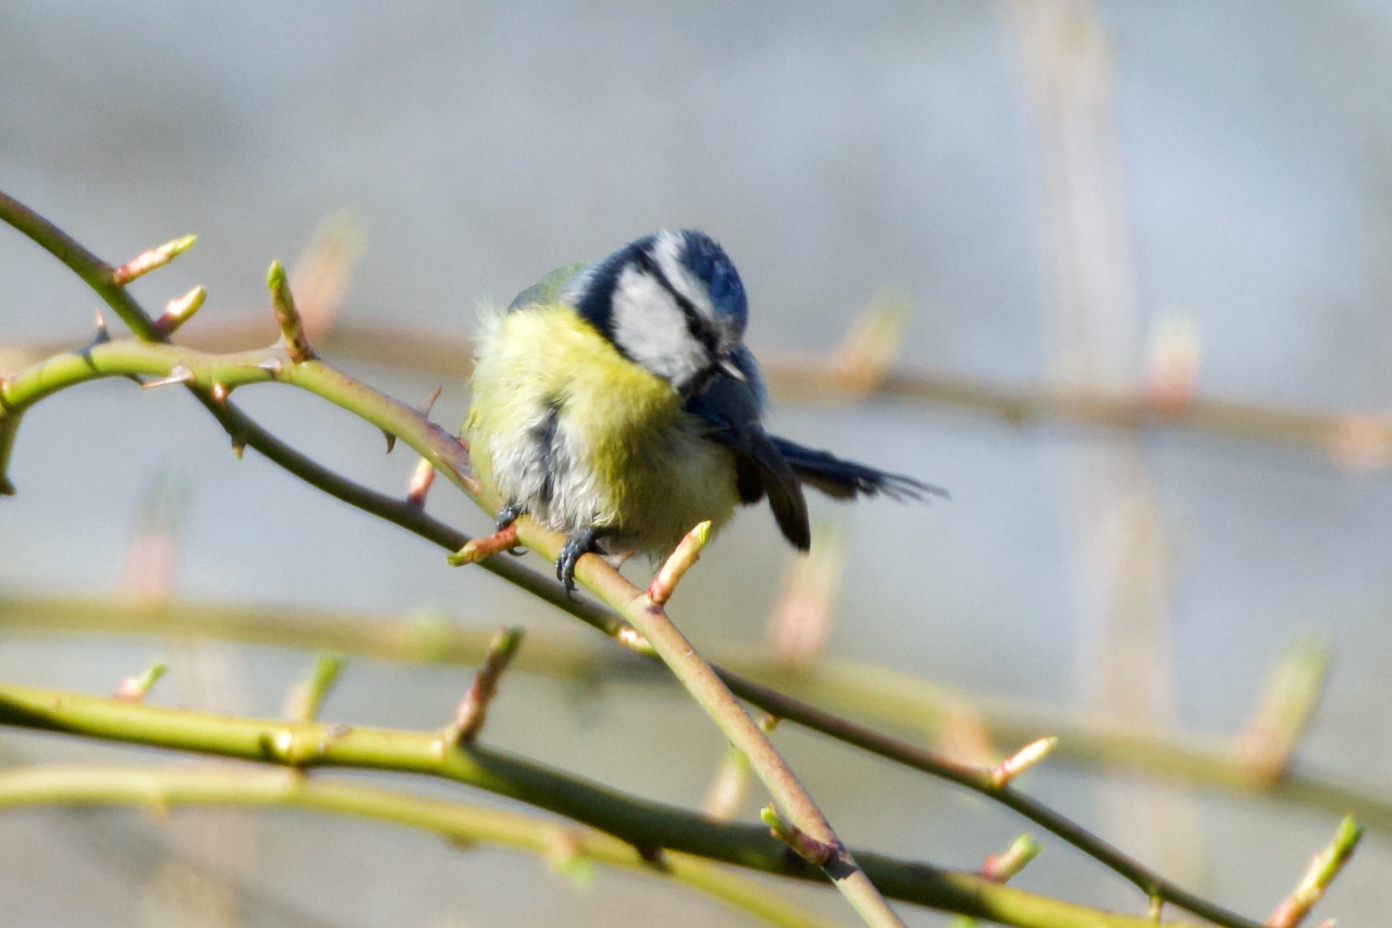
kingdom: Animalia
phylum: Chordata
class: Aves
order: Passeriformes
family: Paridae
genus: Cyanistes
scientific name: Cyanistes caeruleus
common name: Eurasian blue tit
